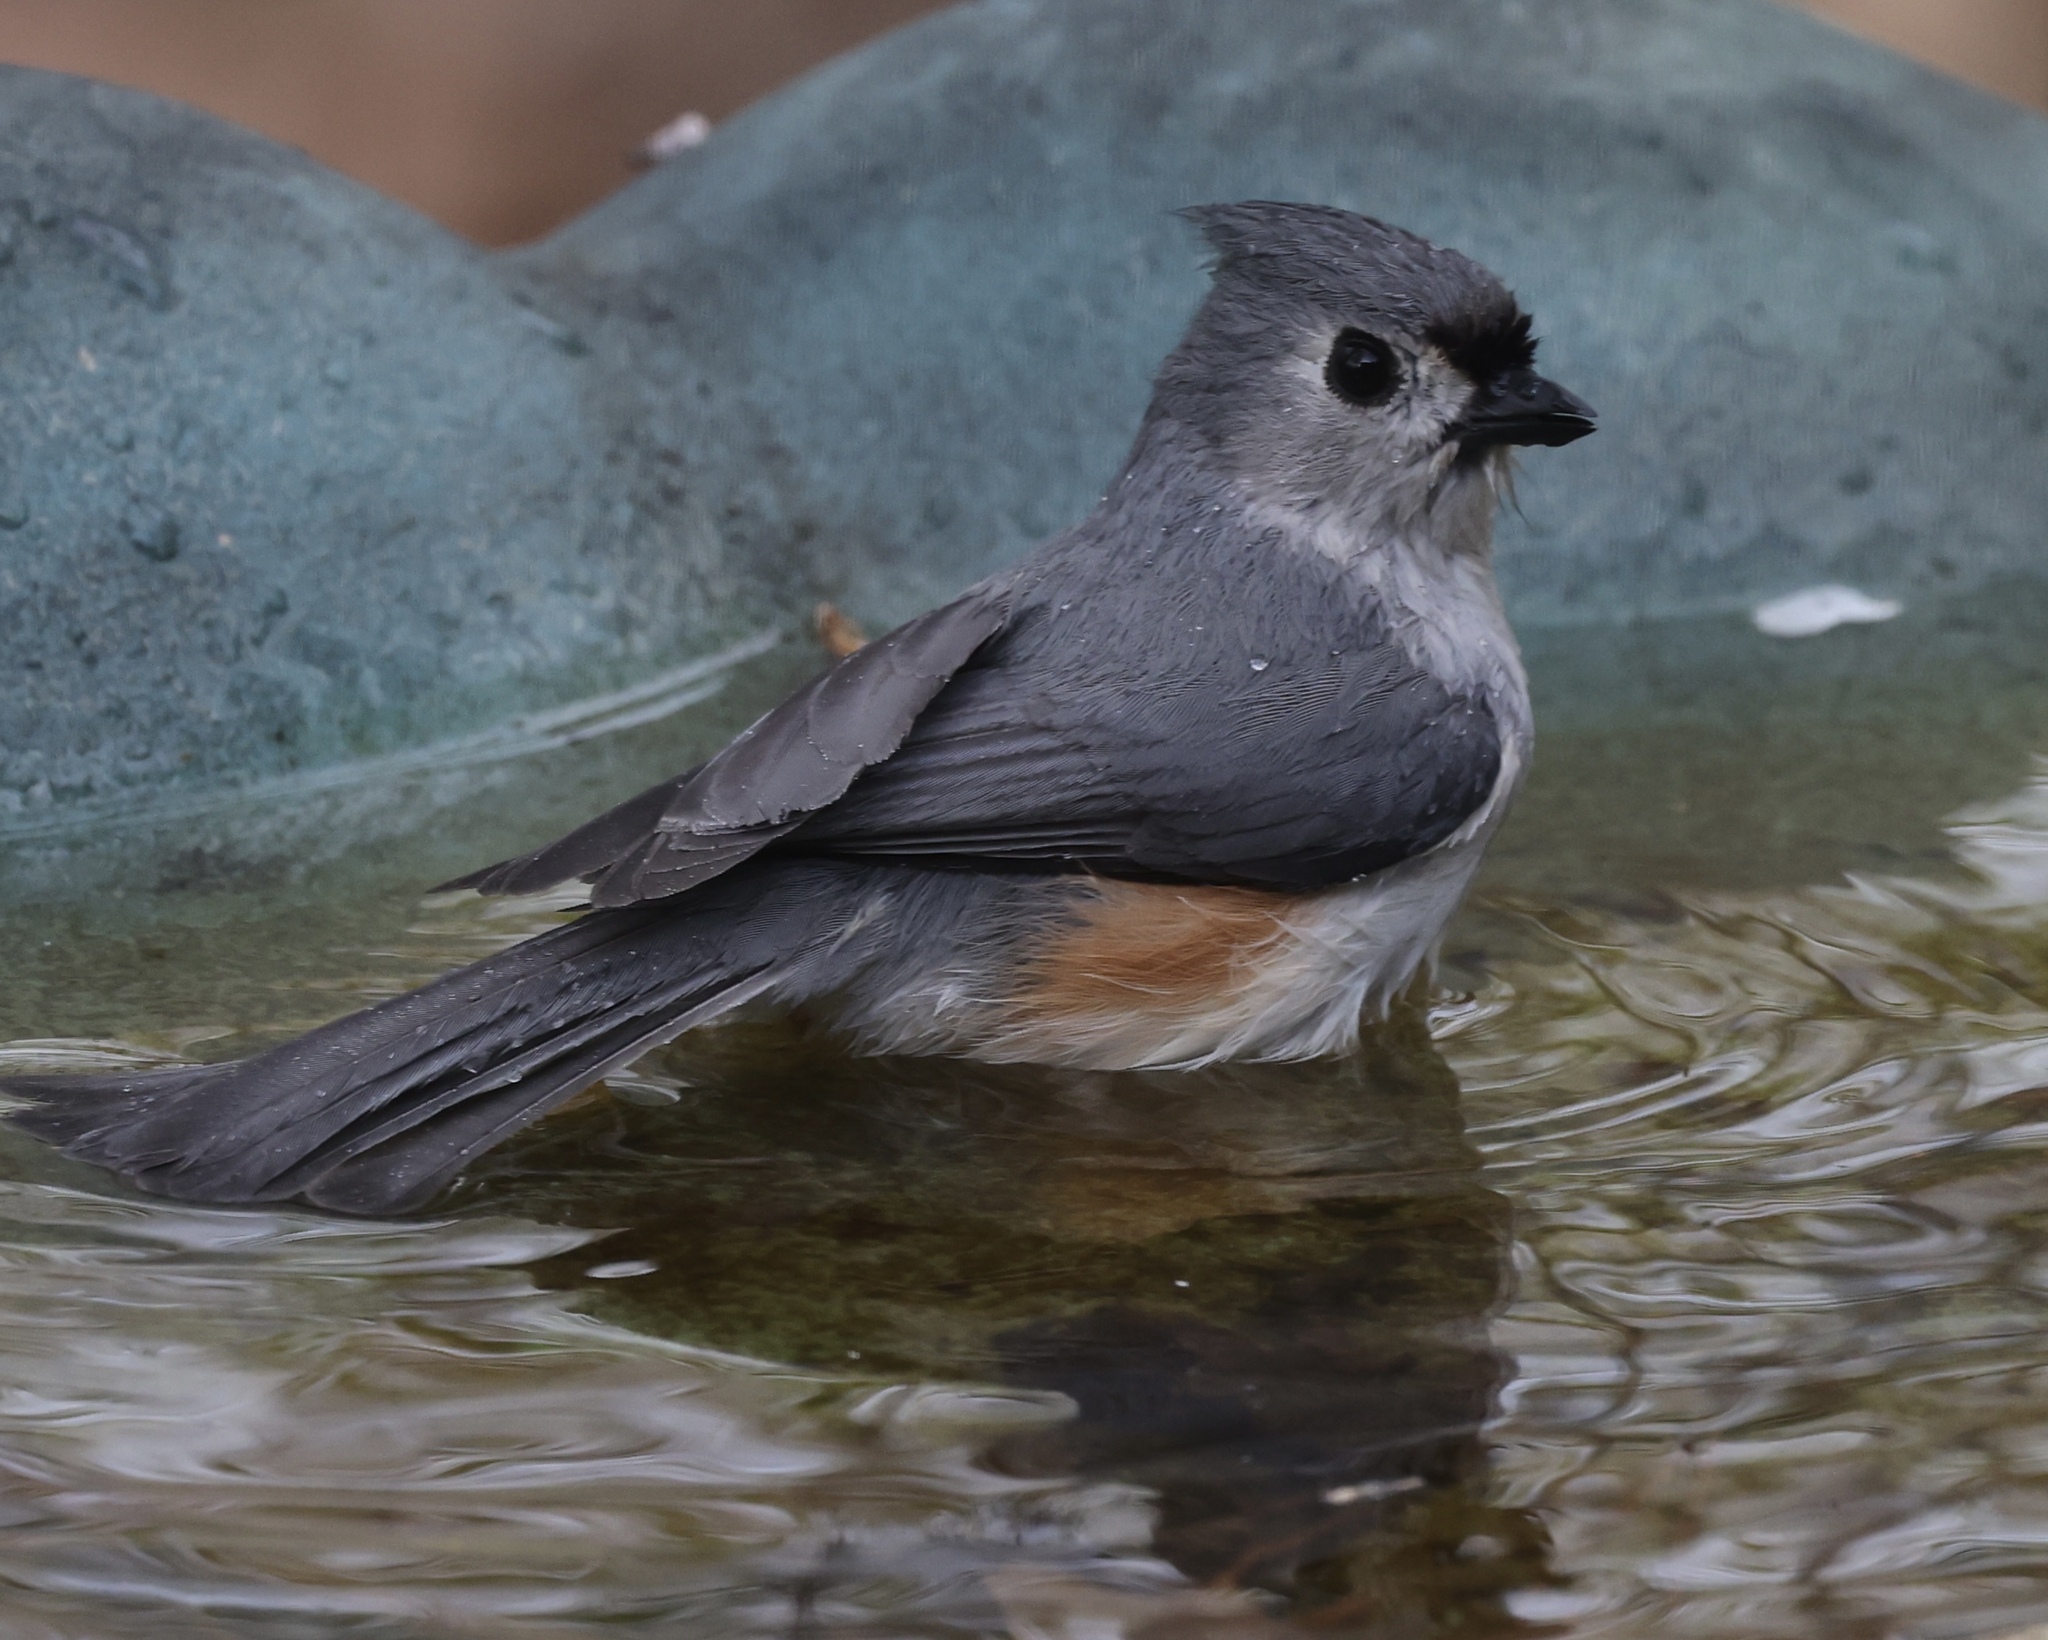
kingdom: Animalia
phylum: Chordata
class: Aves
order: Passeriformes
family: Paridae
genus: Baeolophus
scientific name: Baeolophus bicolor
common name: Tufted titmouse
